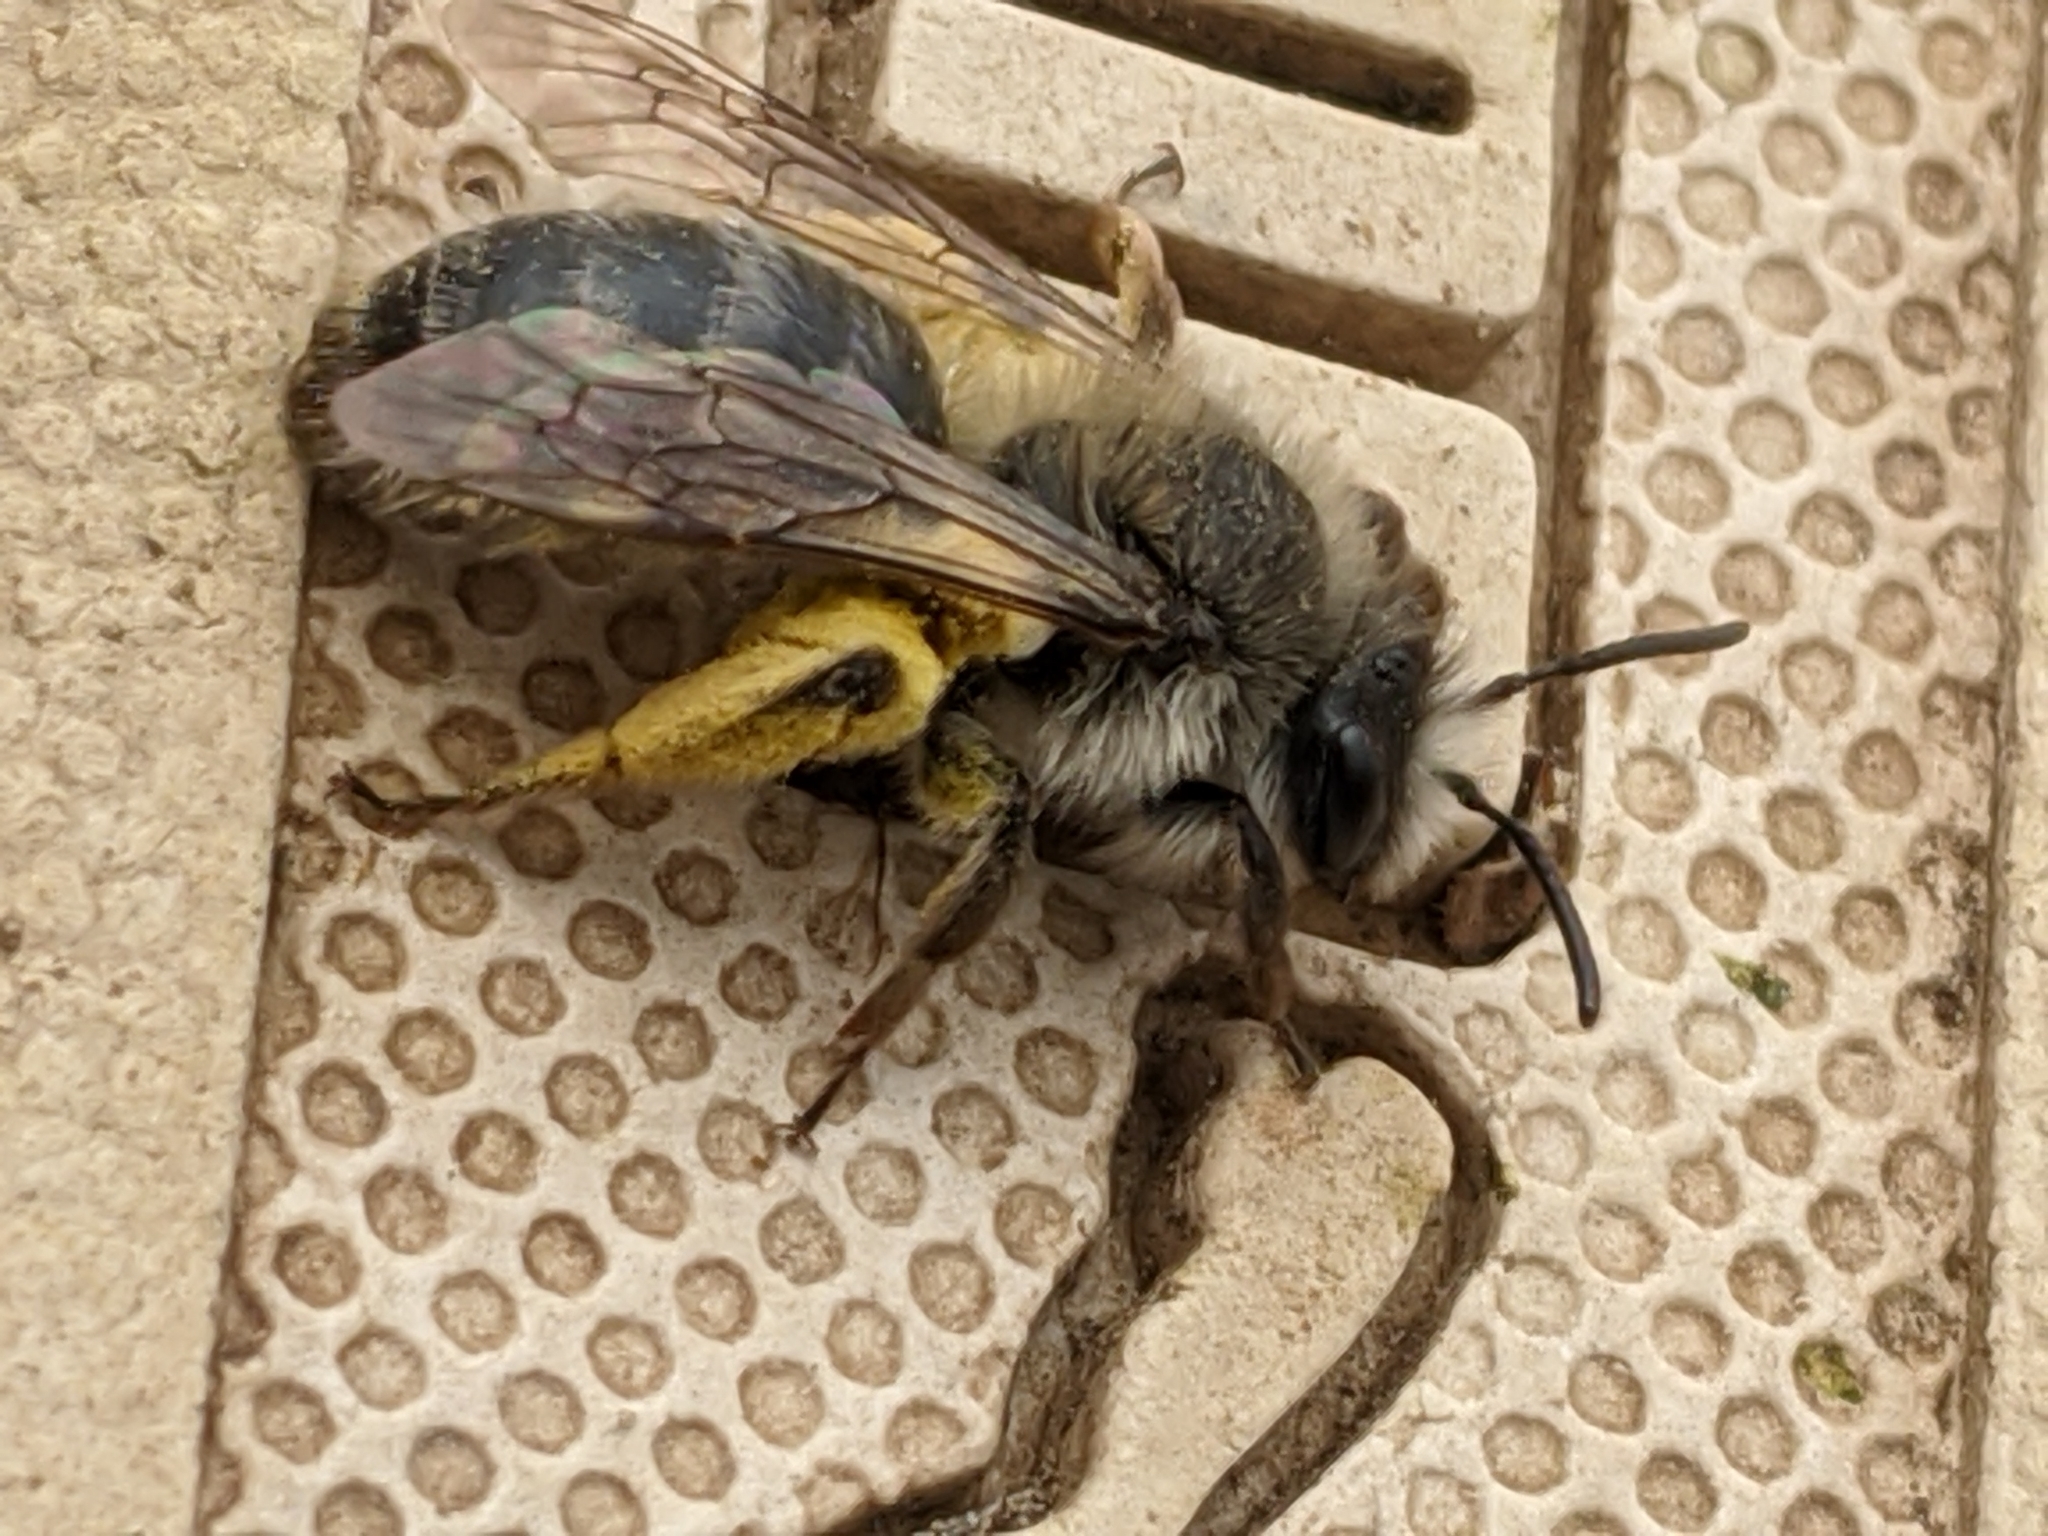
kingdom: Animalia
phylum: Arthropoda
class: Insecta
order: Hymenoptera
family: Andrenidae
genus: Andrena
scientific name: Andrena frigida
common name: Frigid mining bee
